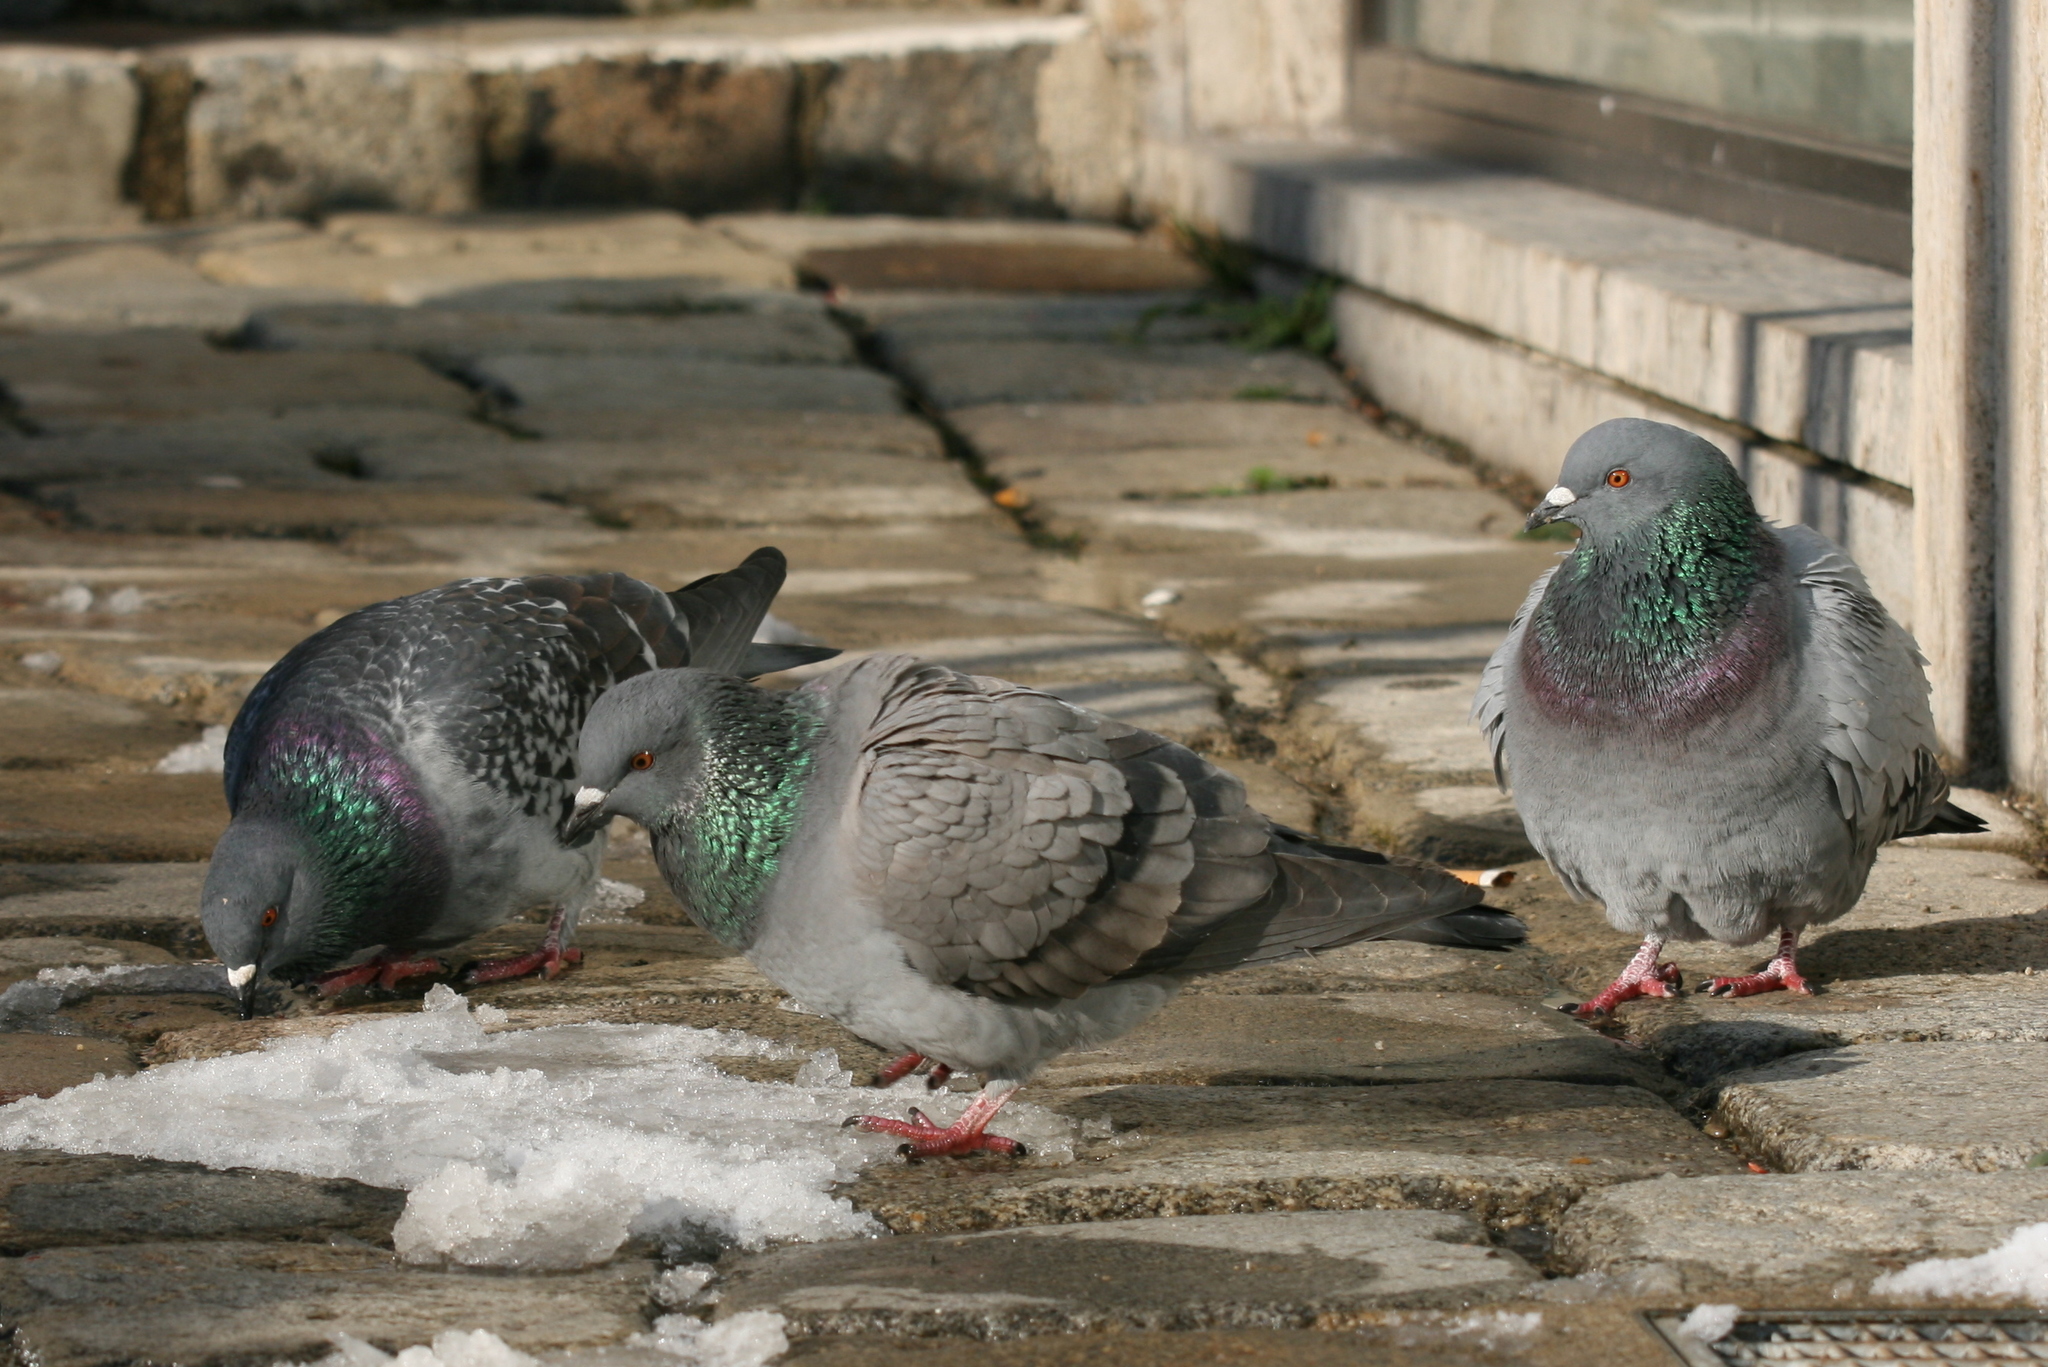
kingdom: Animalia
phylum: Chordata
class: Aves
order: Columbiformes
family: Columbidae
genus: Columba
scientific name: Columba livia
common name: Rock pigeon
